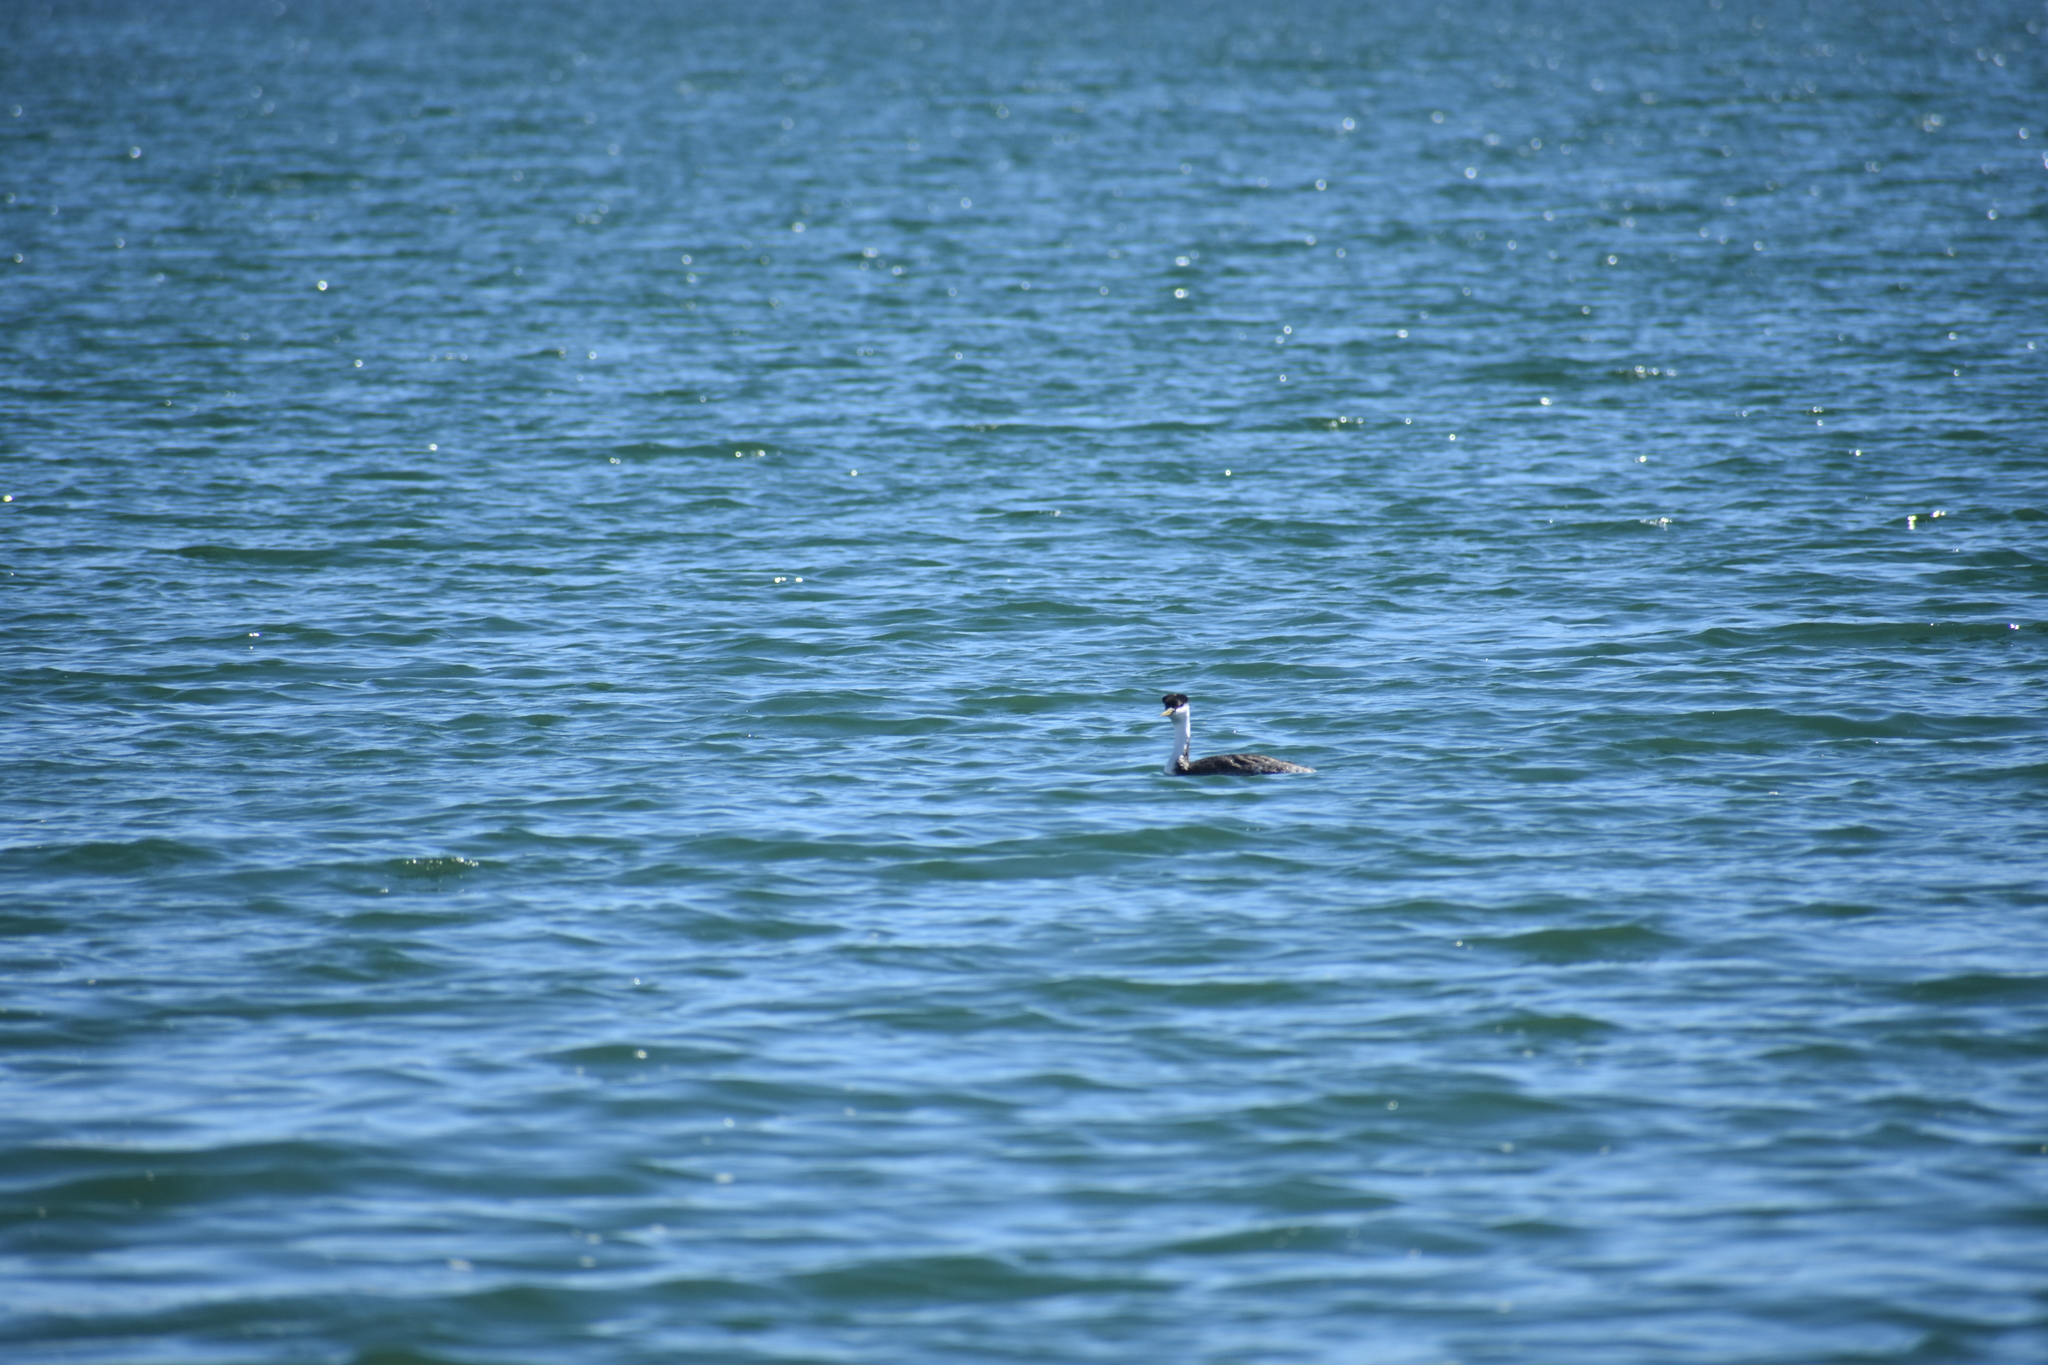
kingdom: Animalia
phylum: Chordata
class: Aves
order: Podicipediformes
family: Podicipedidae
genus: Aechmophorus
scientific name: Aechmophorus occidentalis
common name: Western grebe
